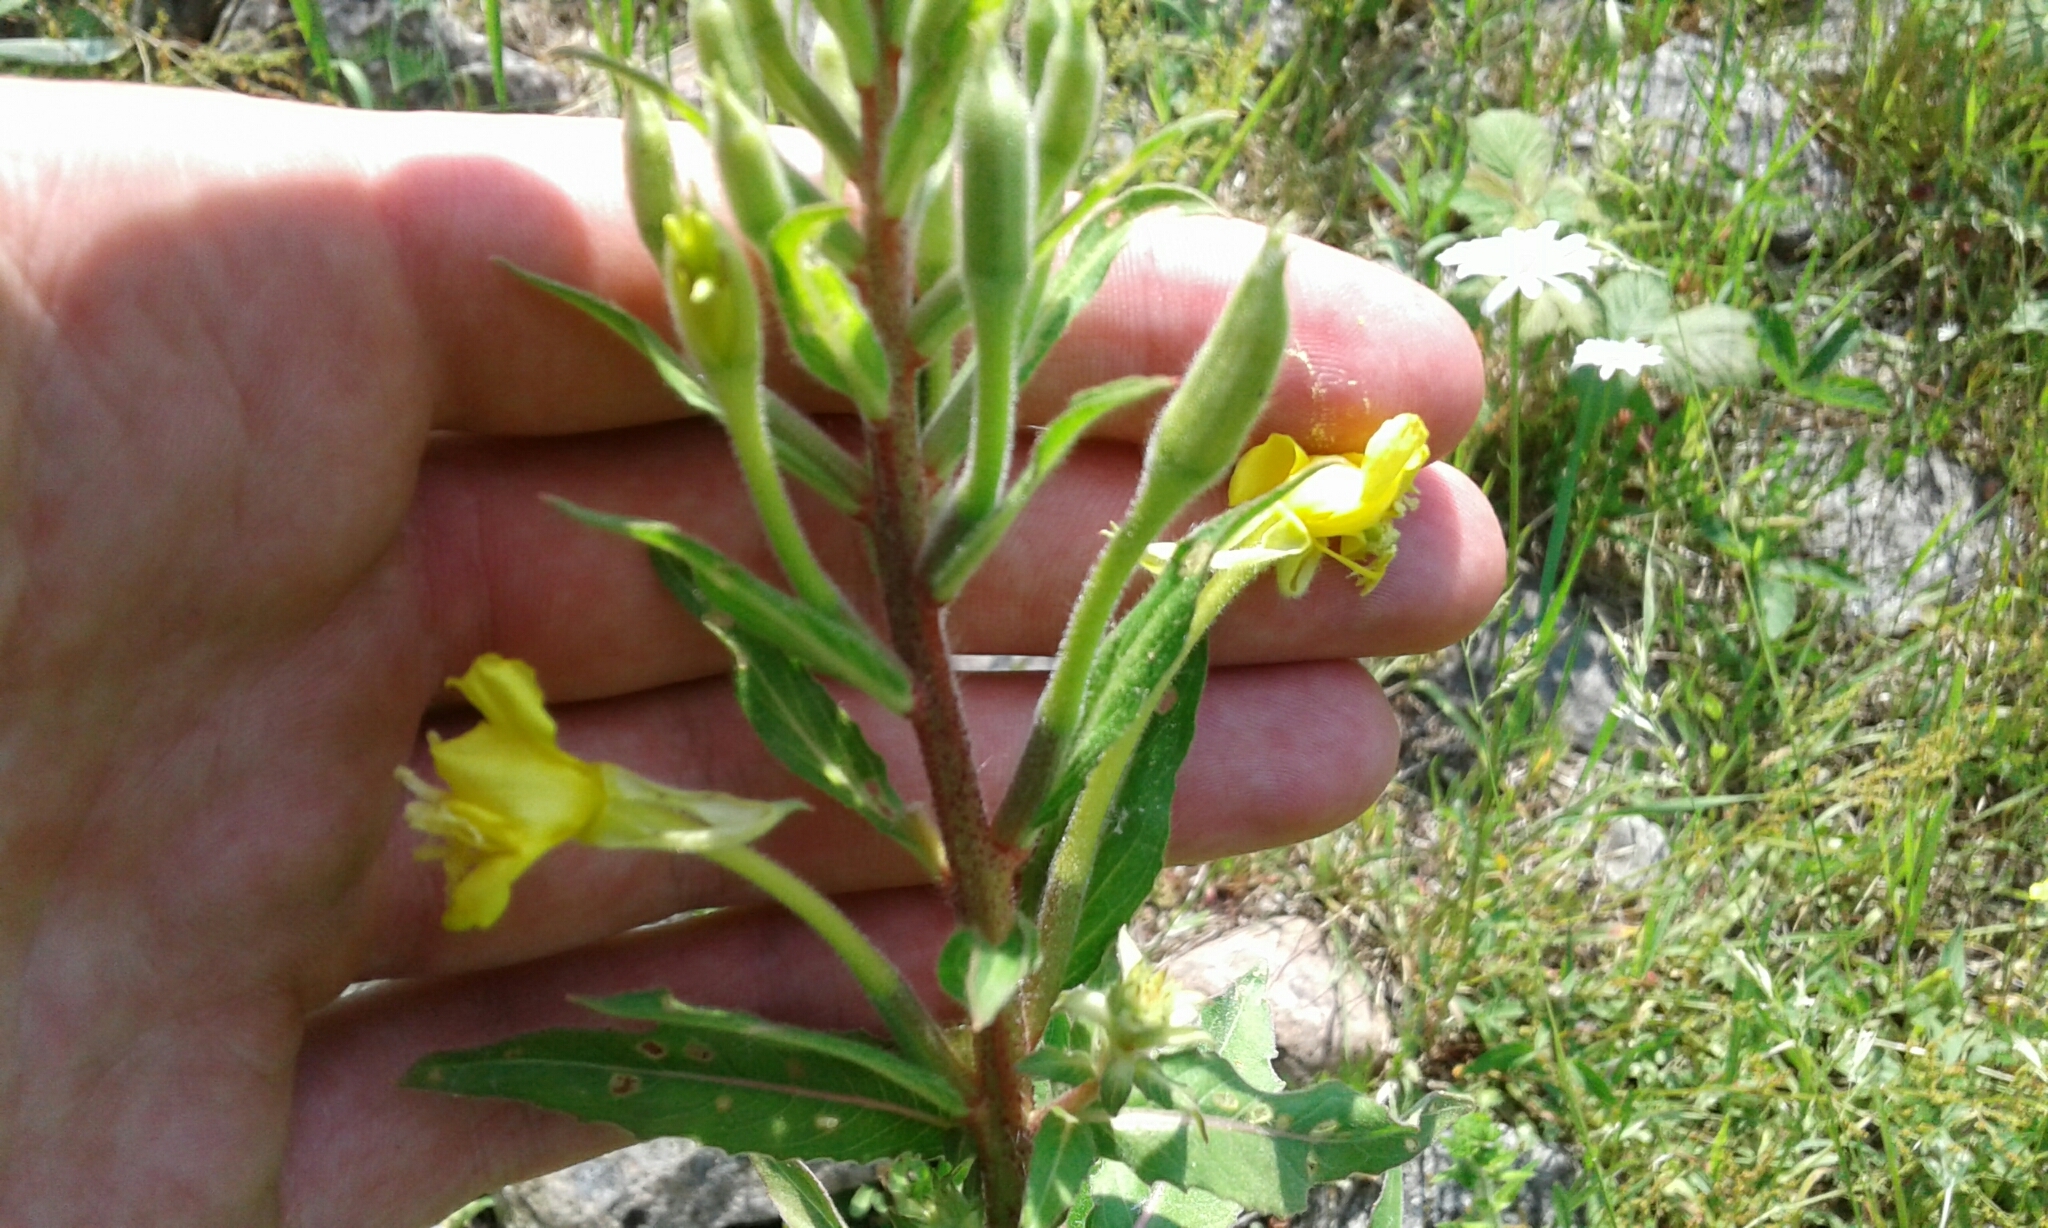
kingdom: Plantae
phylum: Tracheophyta
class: Magnoliopsida
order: Myrtales
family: Onagraceae
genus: Oenothera
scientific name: Oenothera parviflora
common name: Least evening-primrose
